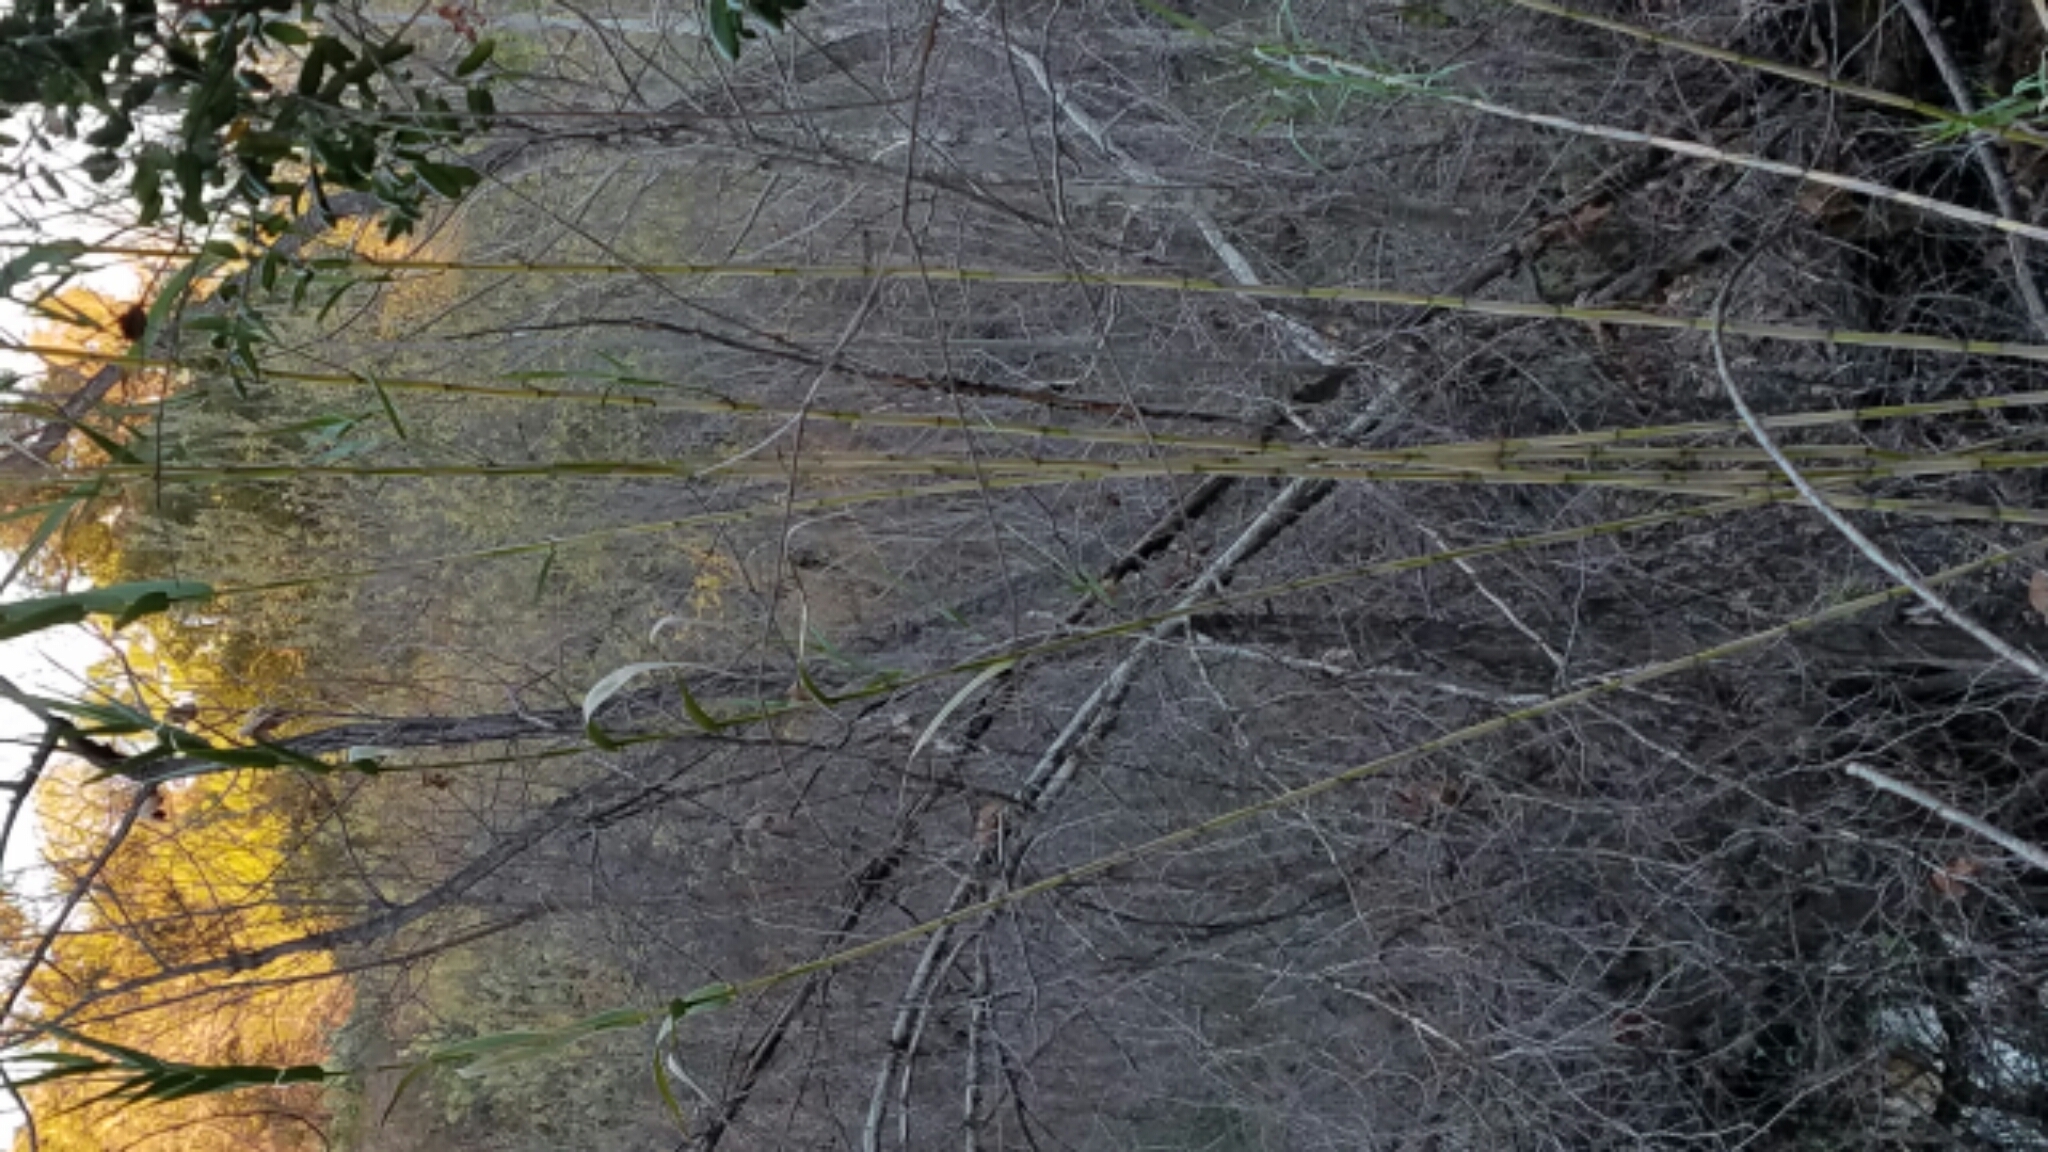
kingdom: Plantae
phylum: Tracheophyta
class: Liliopsida
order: Poales
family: Poaceae
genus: Arundo
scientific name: Arundo donax
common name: Giant reed
